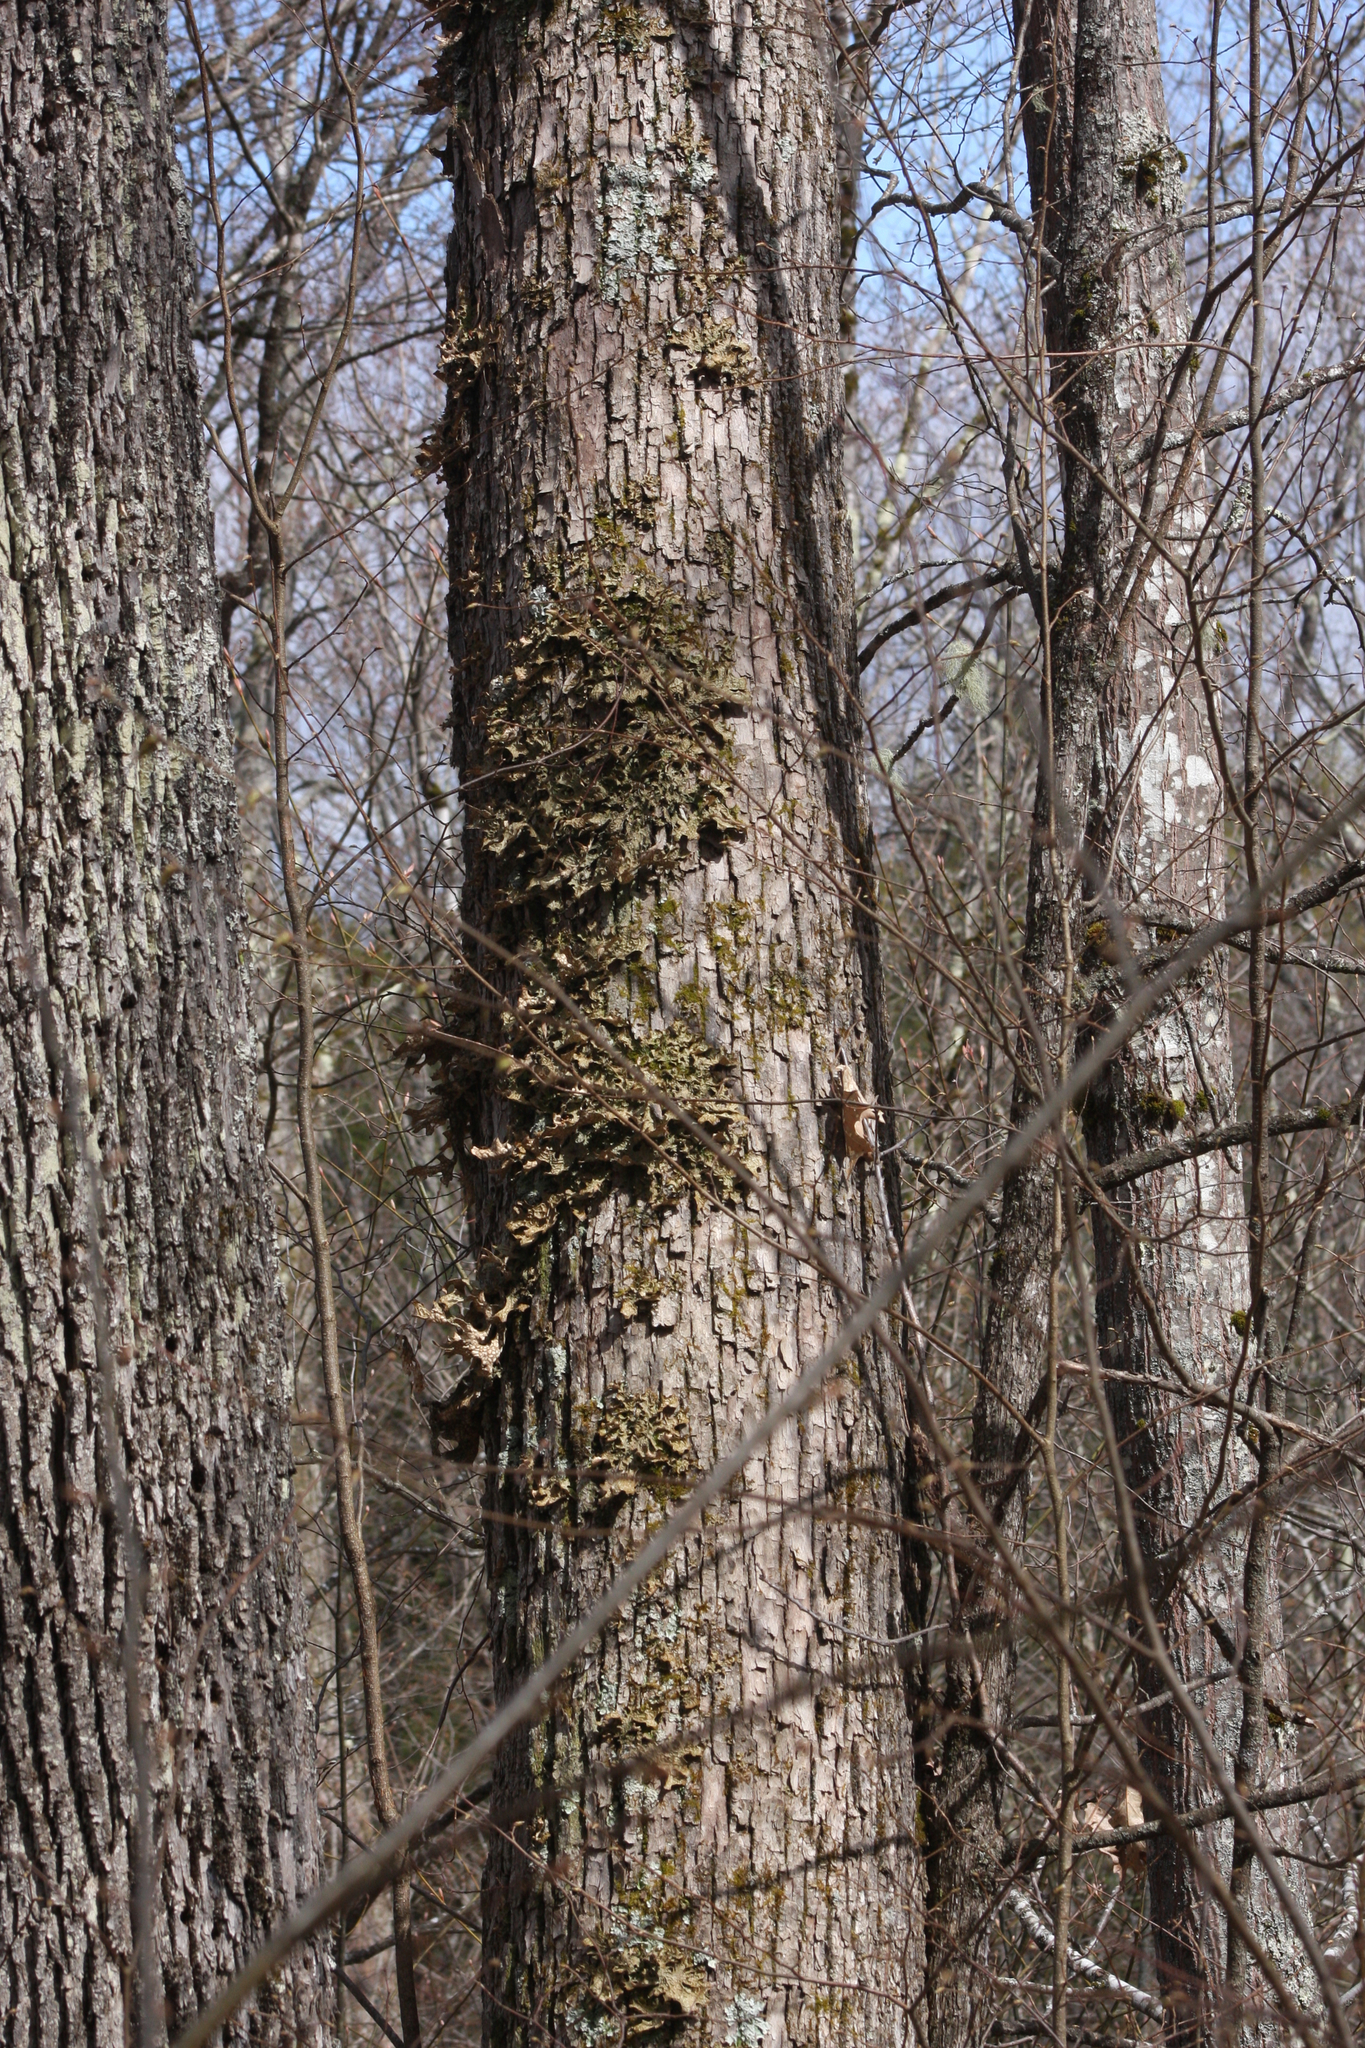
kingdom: Fungi
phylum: Ascomycota
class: Lecanoromycetes
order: Peltigerales
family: Lobariaceae
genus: Lobaria
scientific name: Lobaria pulmonaria
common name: Lungwort
